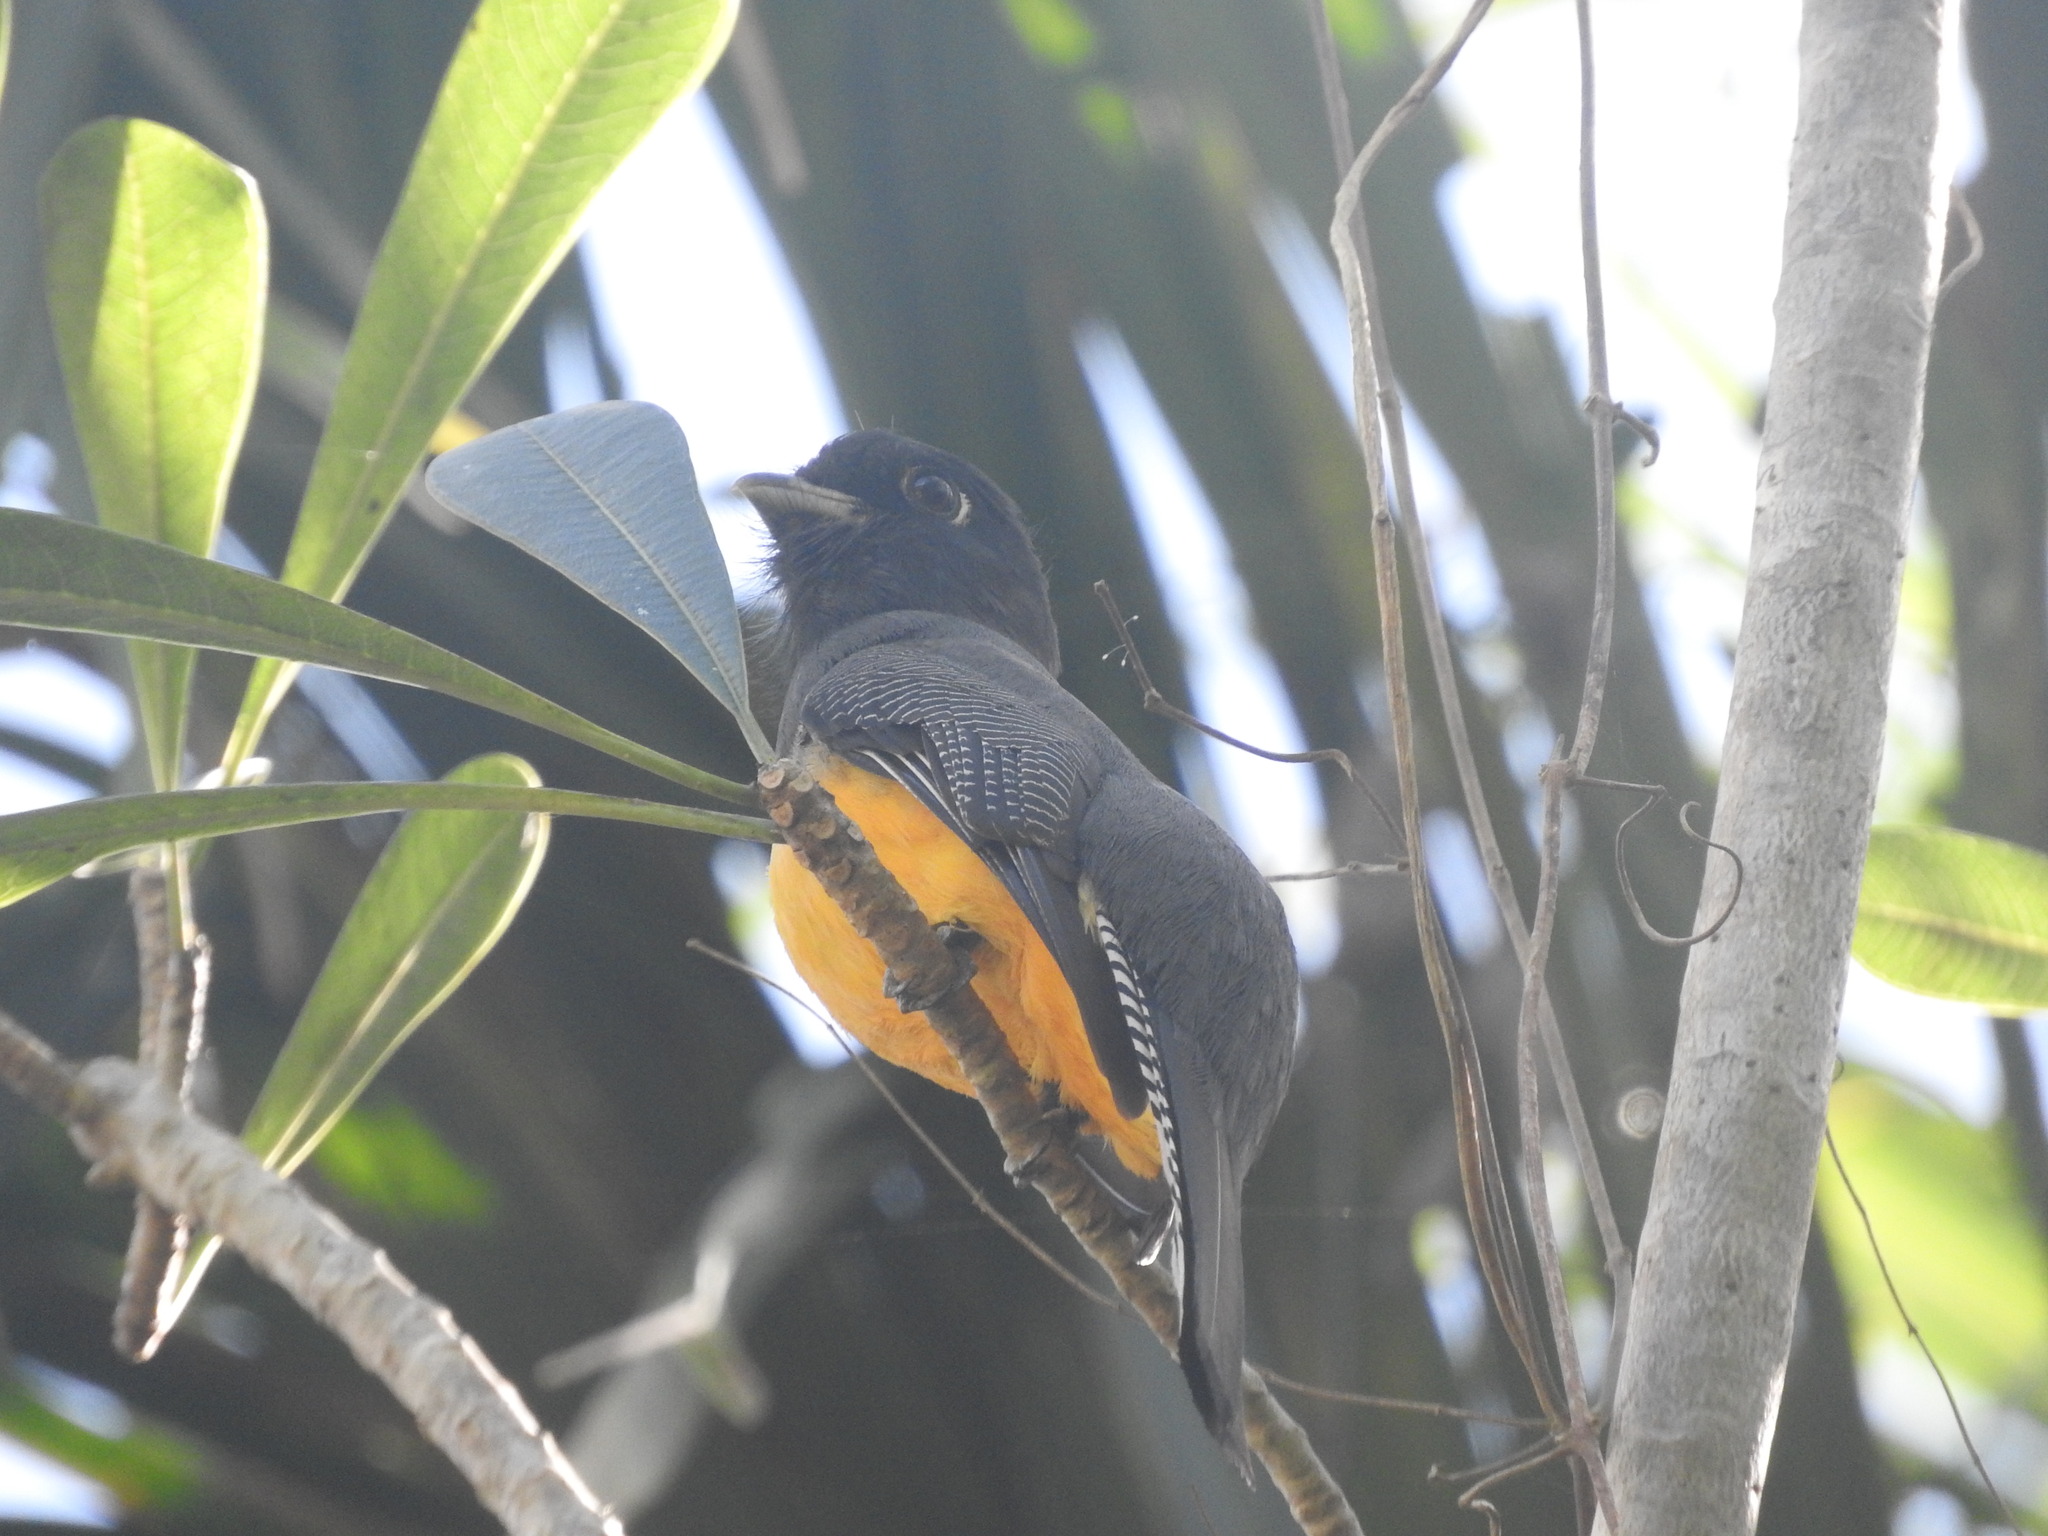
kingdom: Animalia
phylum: Chordata
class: Aves
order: Trogoniformes
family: Trogonidae
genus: Trogon
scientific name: Trogon melanocephalus
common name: Black-headed trogon
